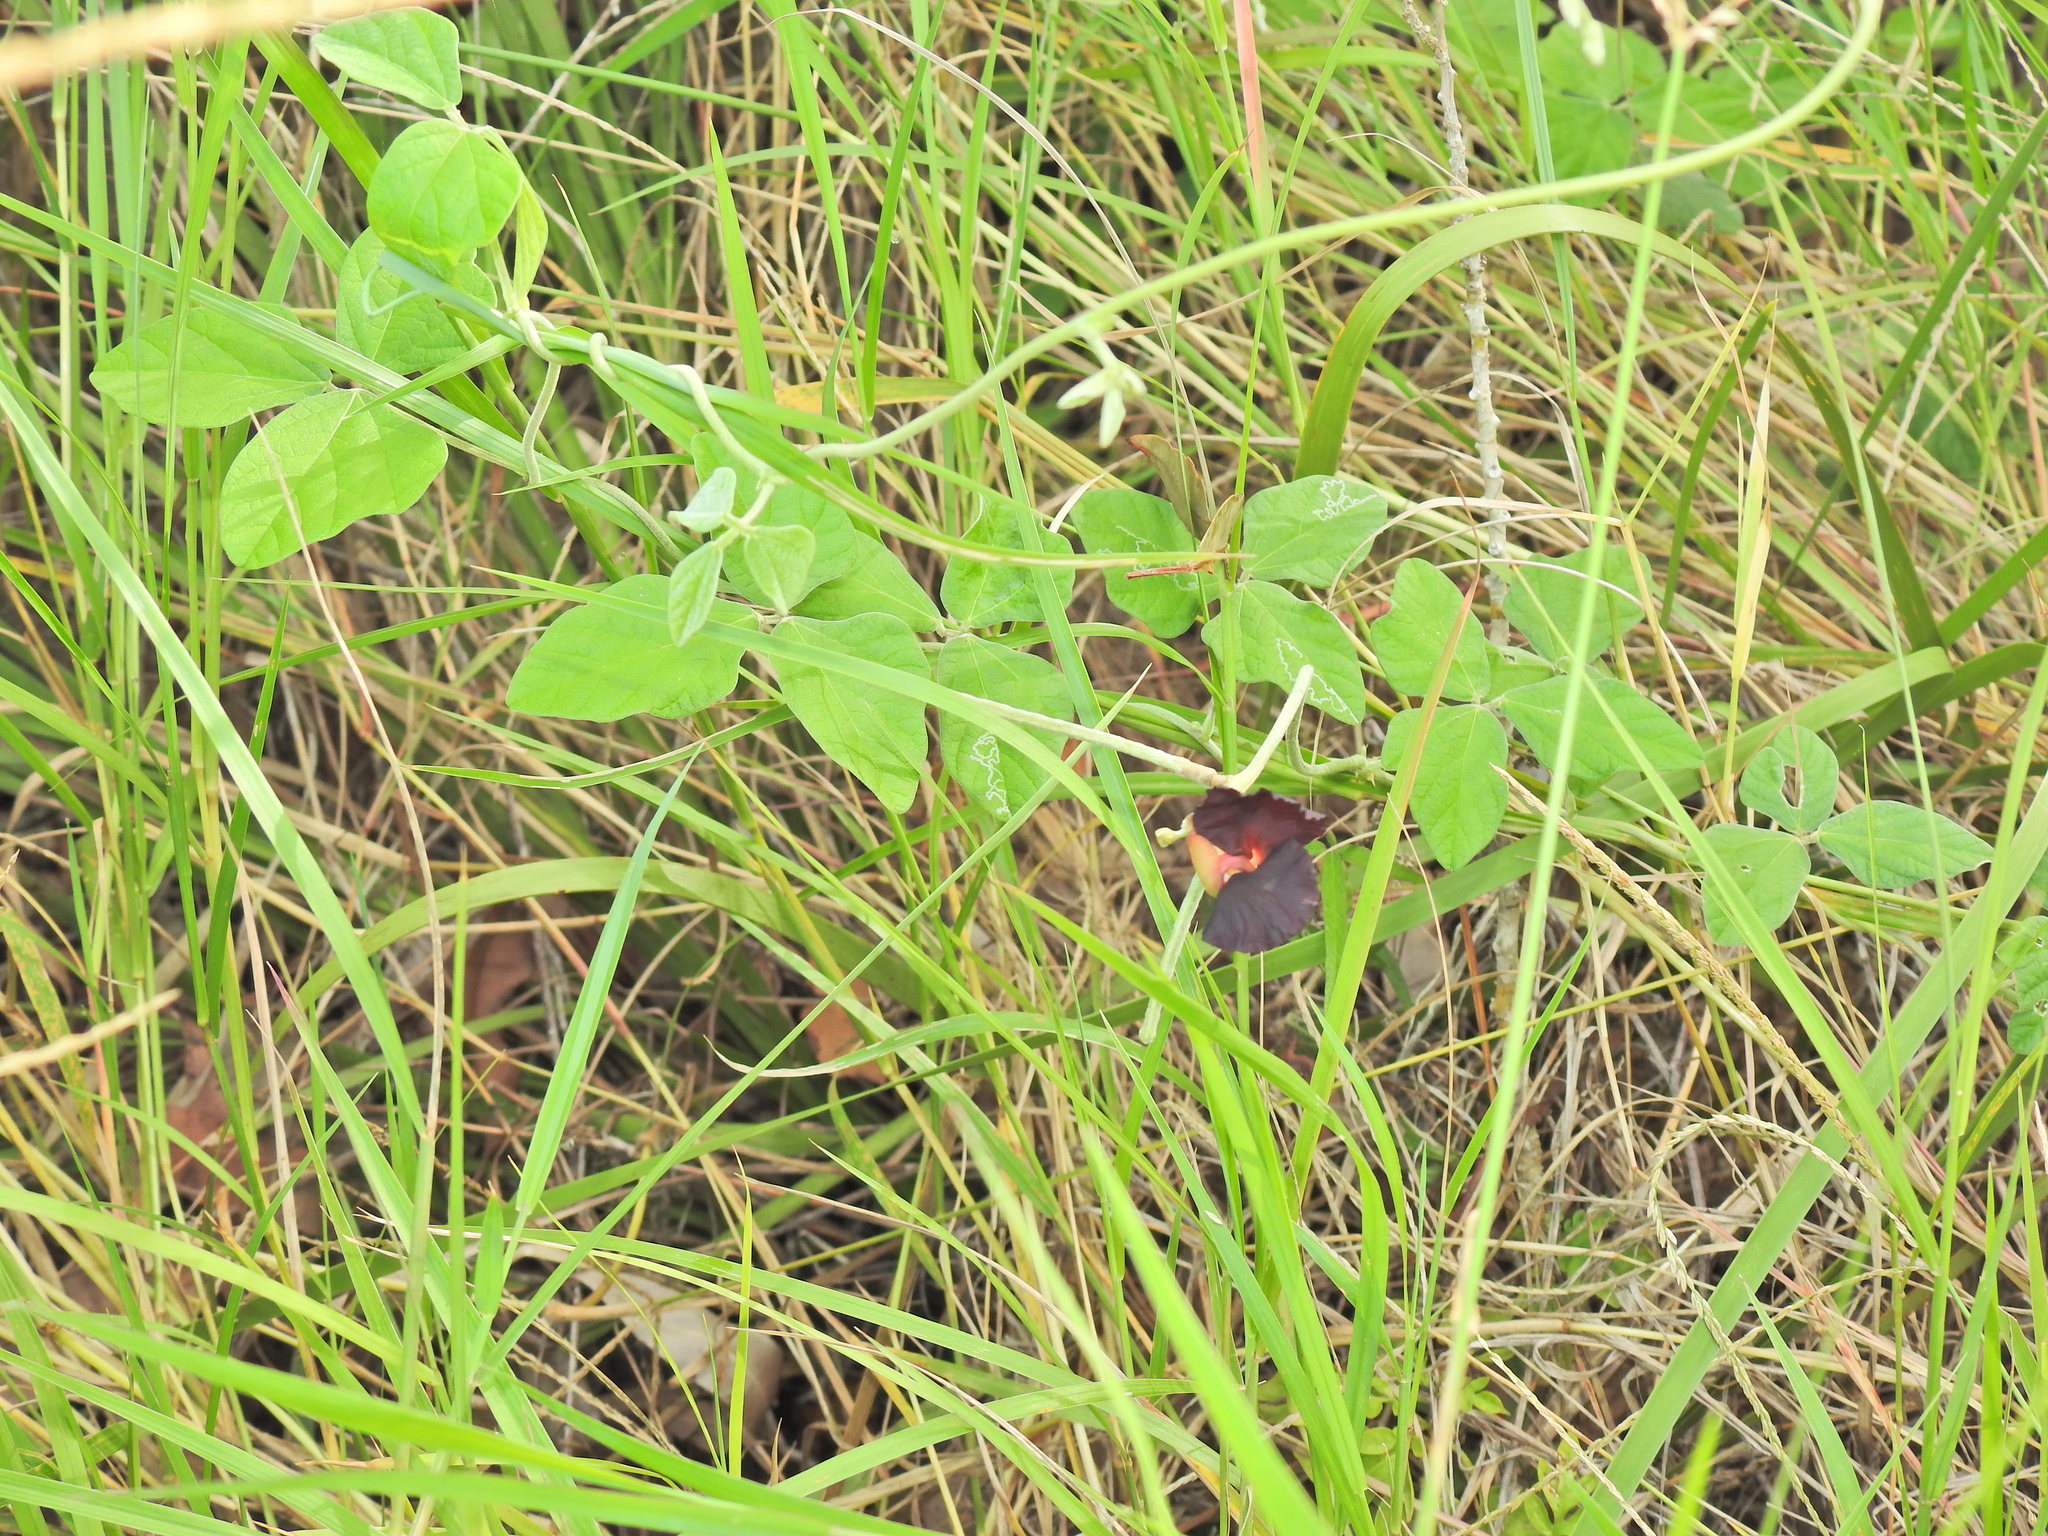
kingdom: Plantae
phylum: Tracheophyta
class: Magnoliopsida
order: Fabales
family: Fabaceae
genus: Macroptilium
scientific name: Macroptilium atropurpureum
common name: Purple bushbean
